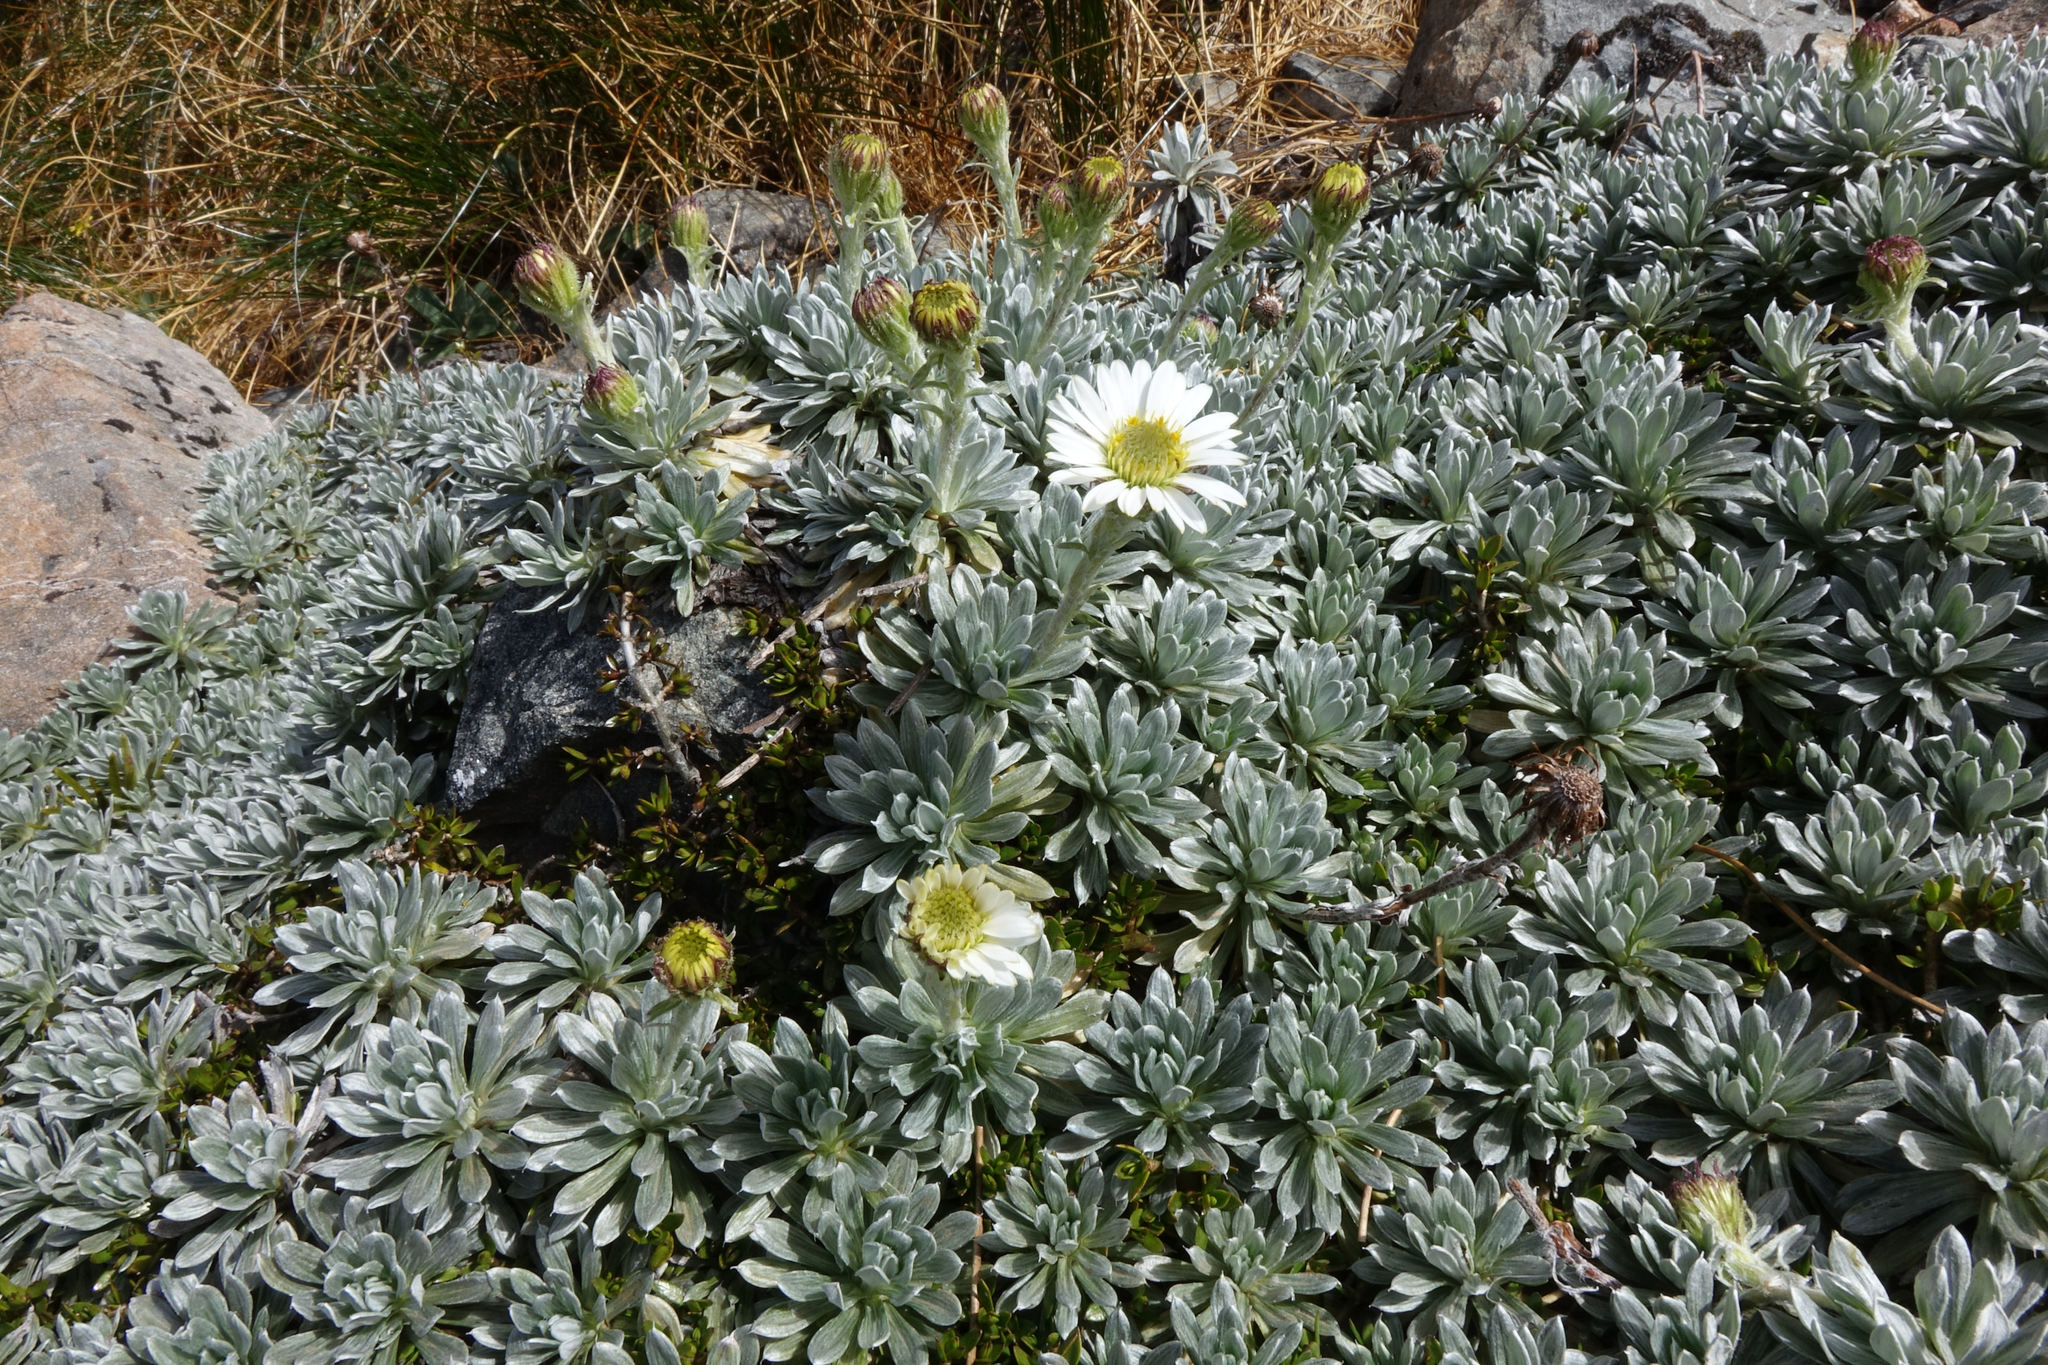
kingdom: Plantae
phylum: Tracheophyta
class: Magnoliopsida
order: Asterales
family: Asteraceae
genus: Celmisia
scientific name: Celmisia hectorii
